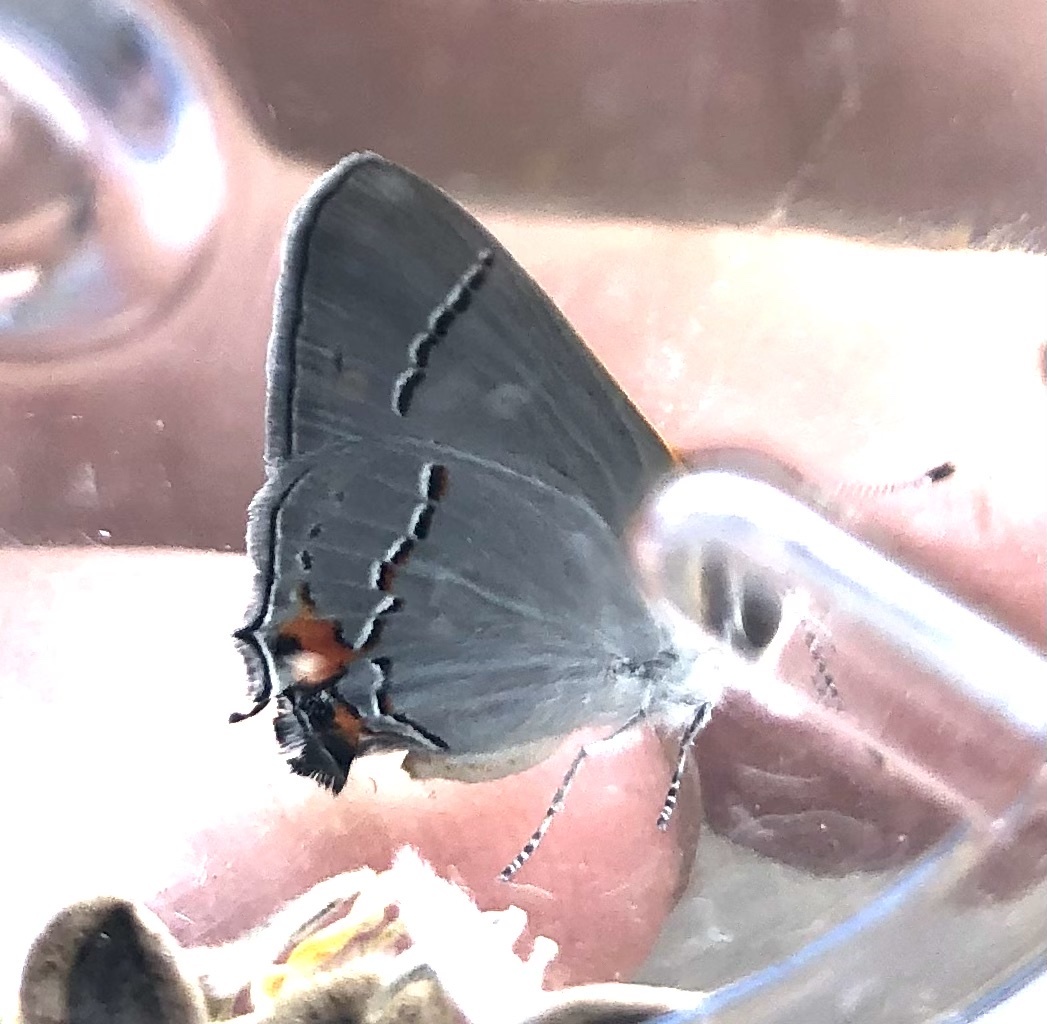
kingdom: Animalia
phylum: Arthropoda
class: Insecta
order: Lepidoptera
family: Lycaenidae
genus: Strymon
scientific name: Strymon melinus
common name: Gray hairstreak
